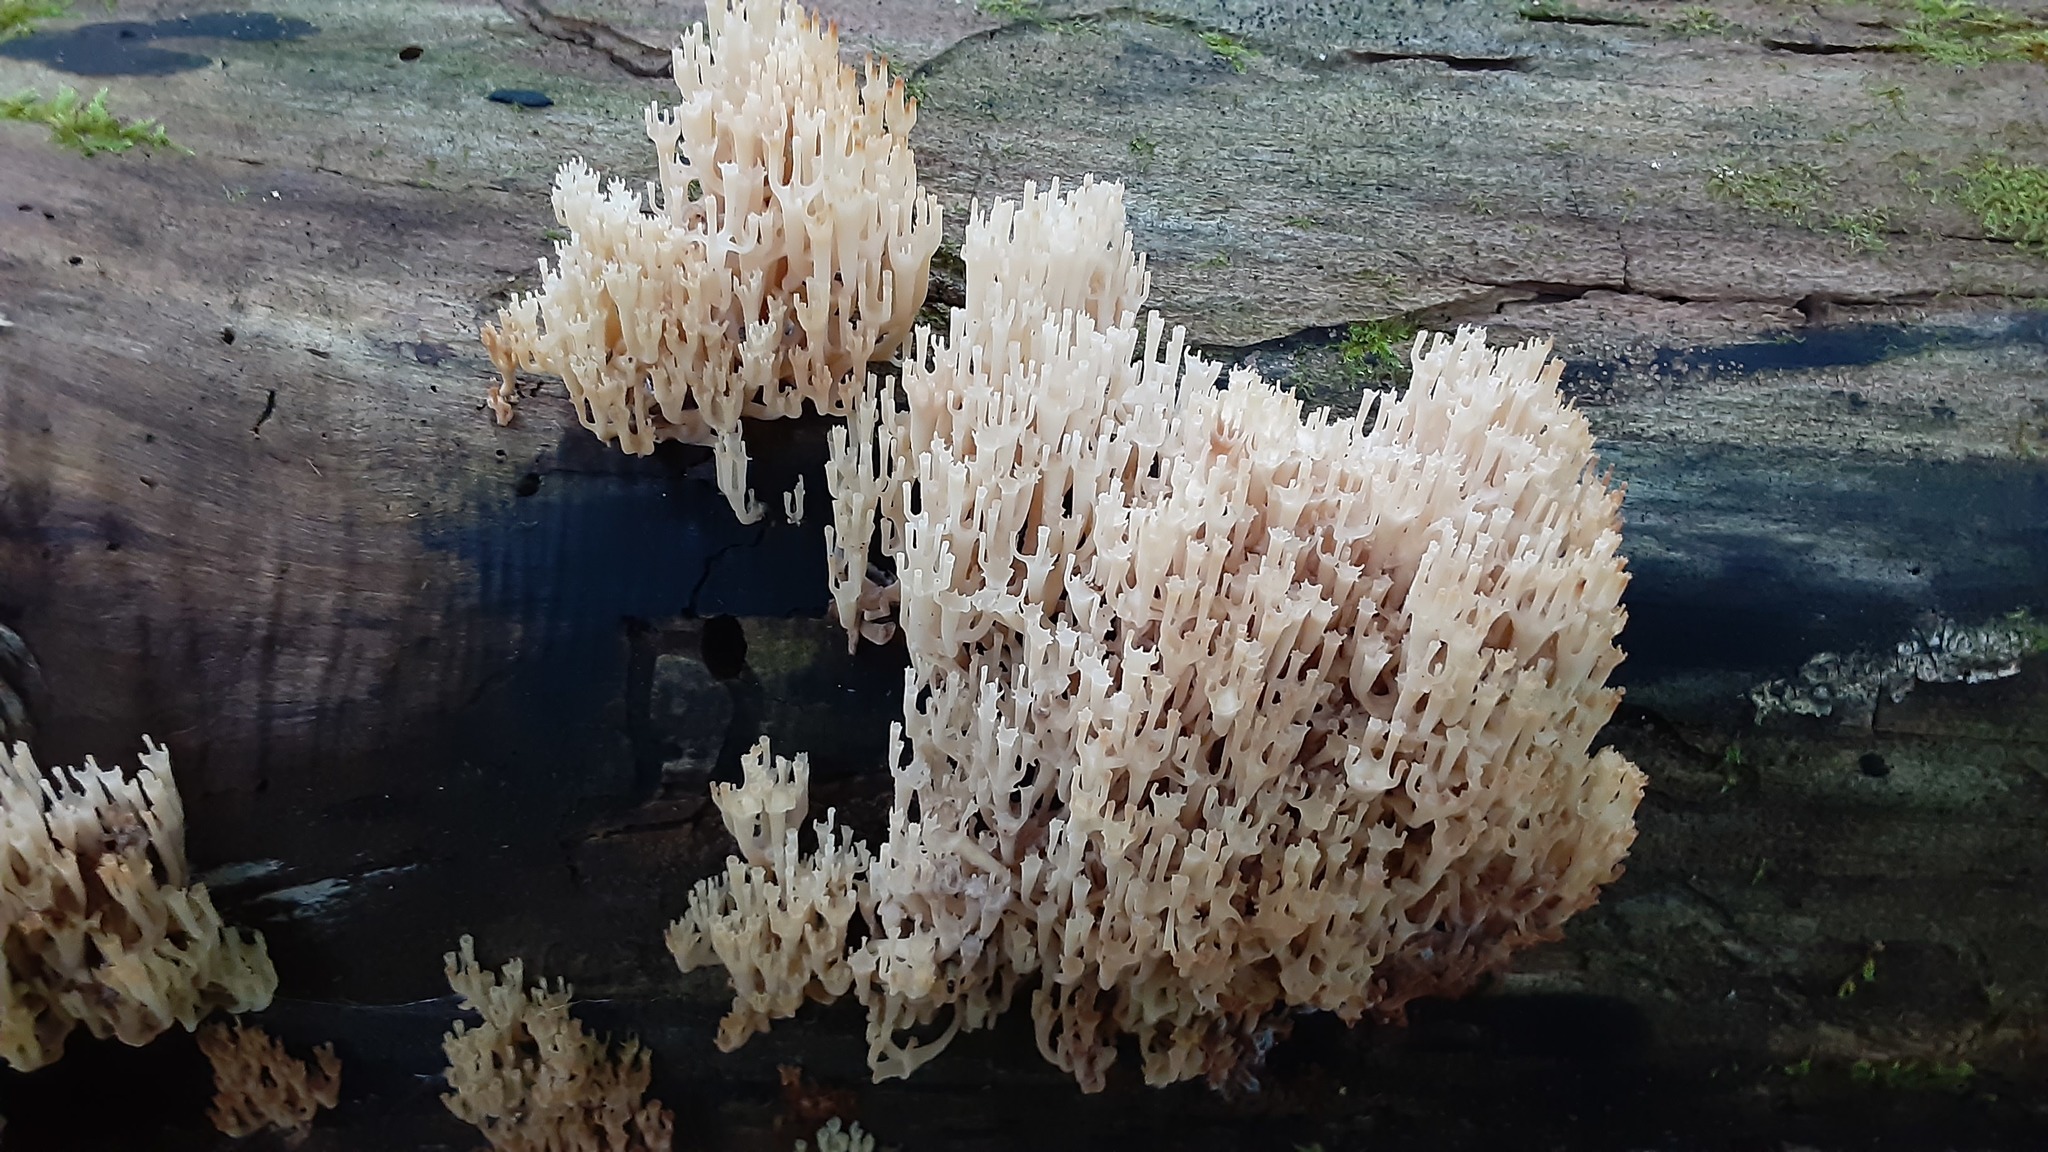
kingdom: Fungi
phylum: Basidiomycota
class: Agaricomycetes
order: Russulales
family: Auriscalpiaceae
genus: Artomyces
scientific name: Artomyces pyxidatus
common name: Crown-tipped coral fungus
